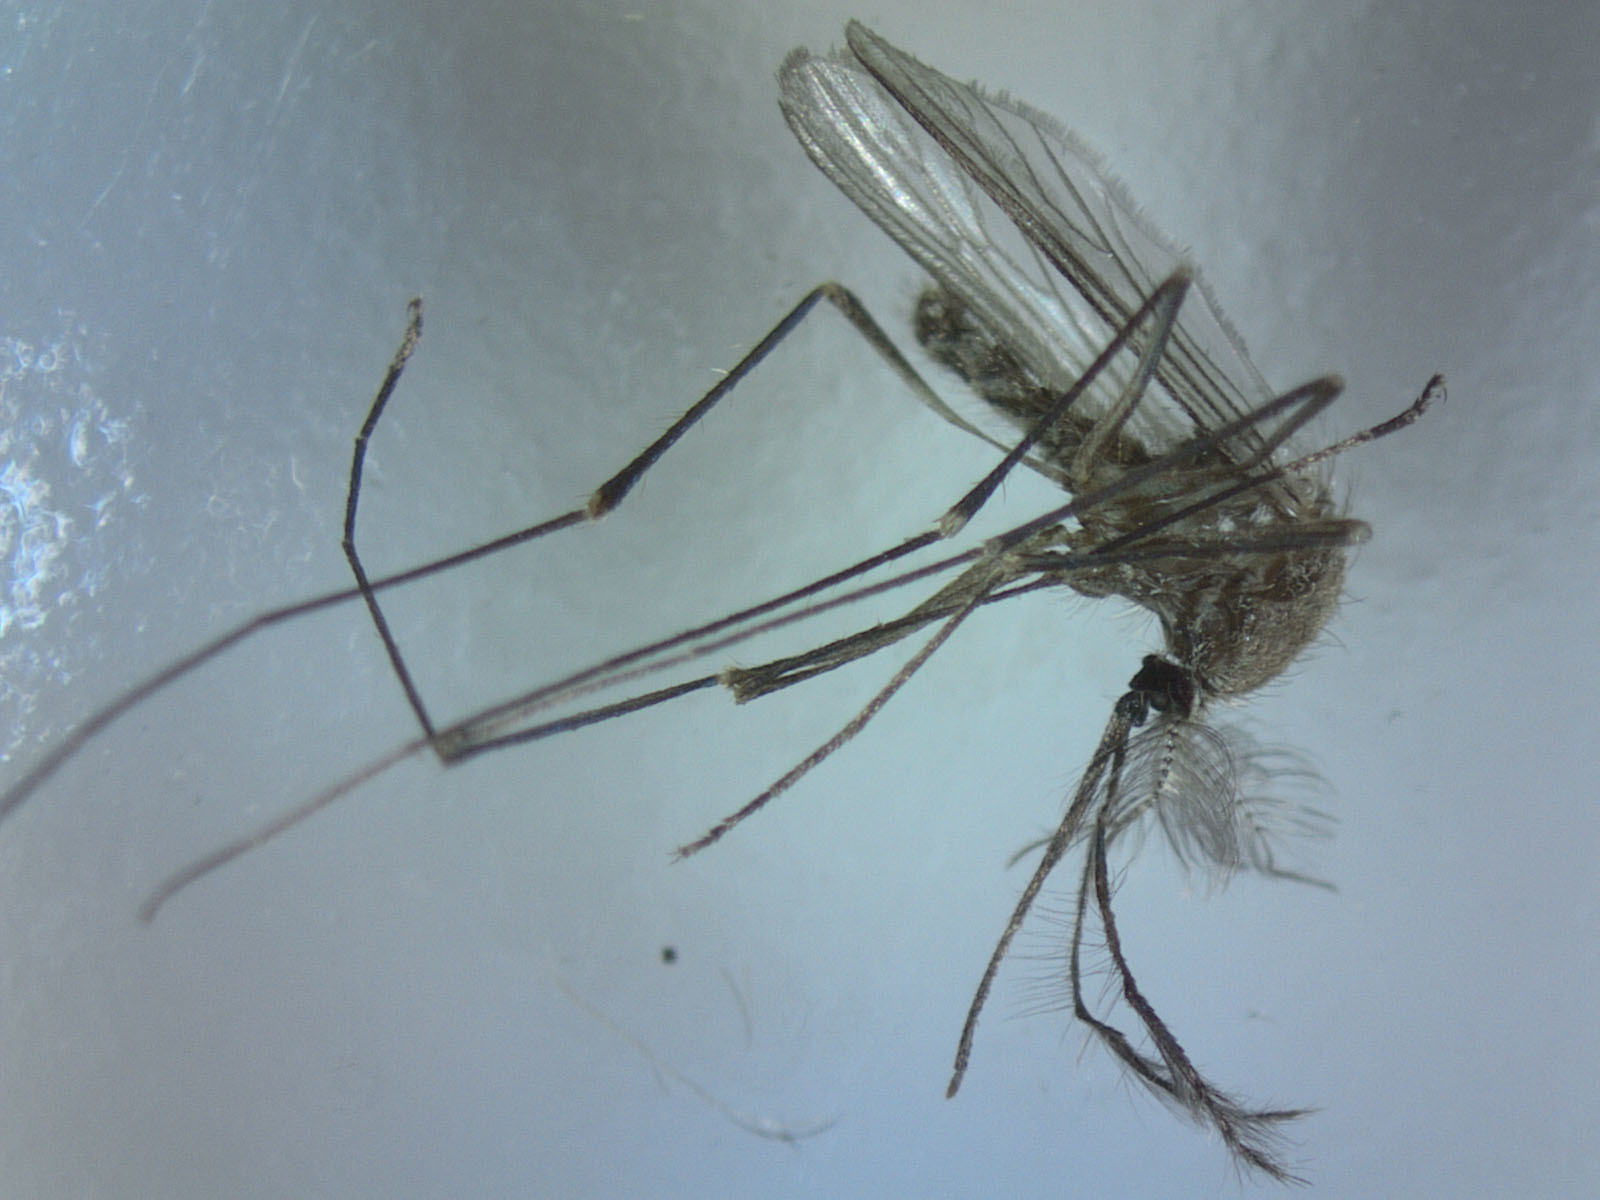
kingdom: Animalia
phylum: Arthropoda
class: Insecta
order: Diptera
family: Culicidae
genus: Culex
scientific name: Culex pervigilans
